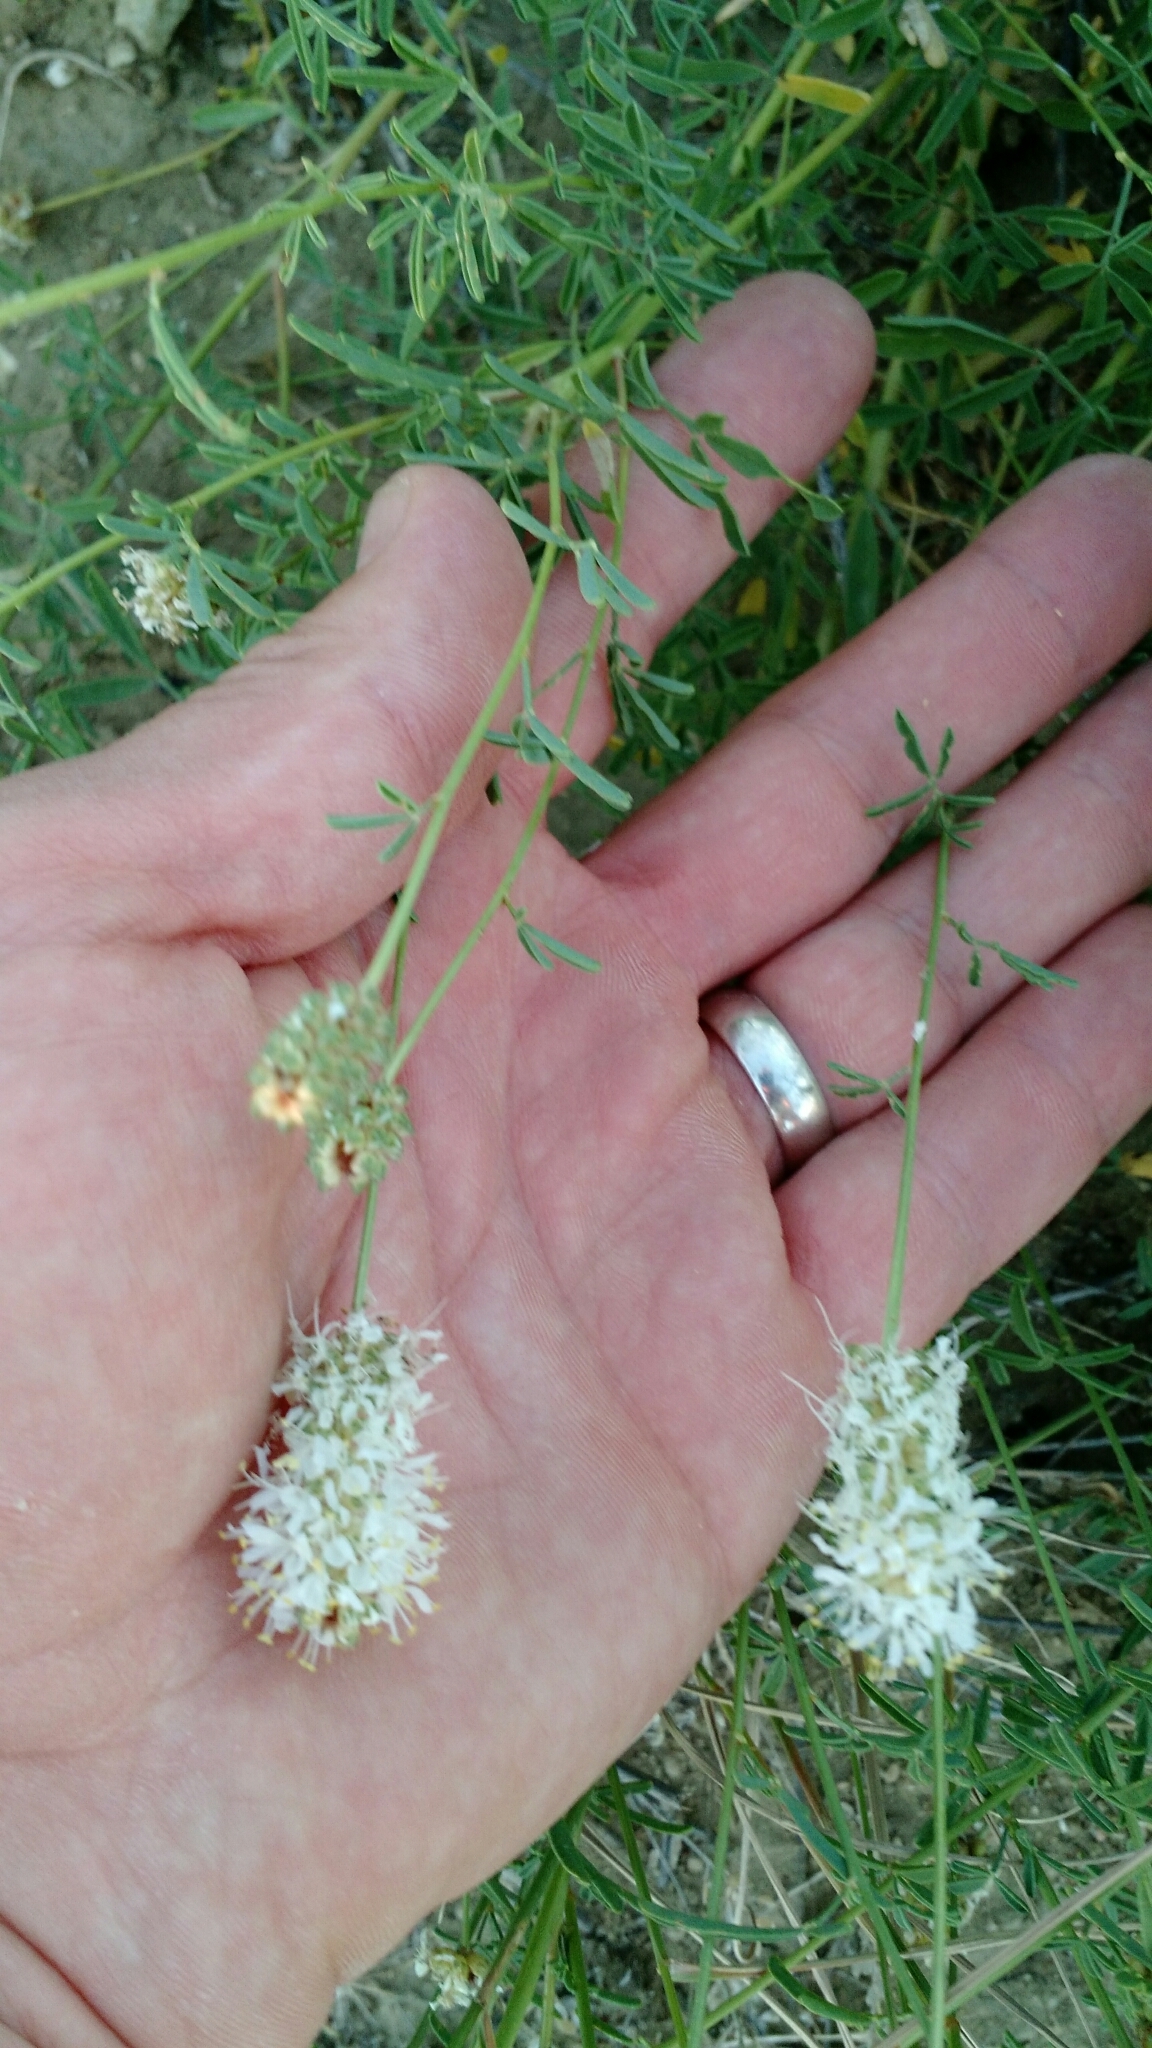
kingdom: Plantae
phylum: Tracheophyta
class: Magnoliopsida
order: Fabales
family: Fabaceae
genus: Dalea
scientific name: Dalea candida
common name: White prairie-clover
